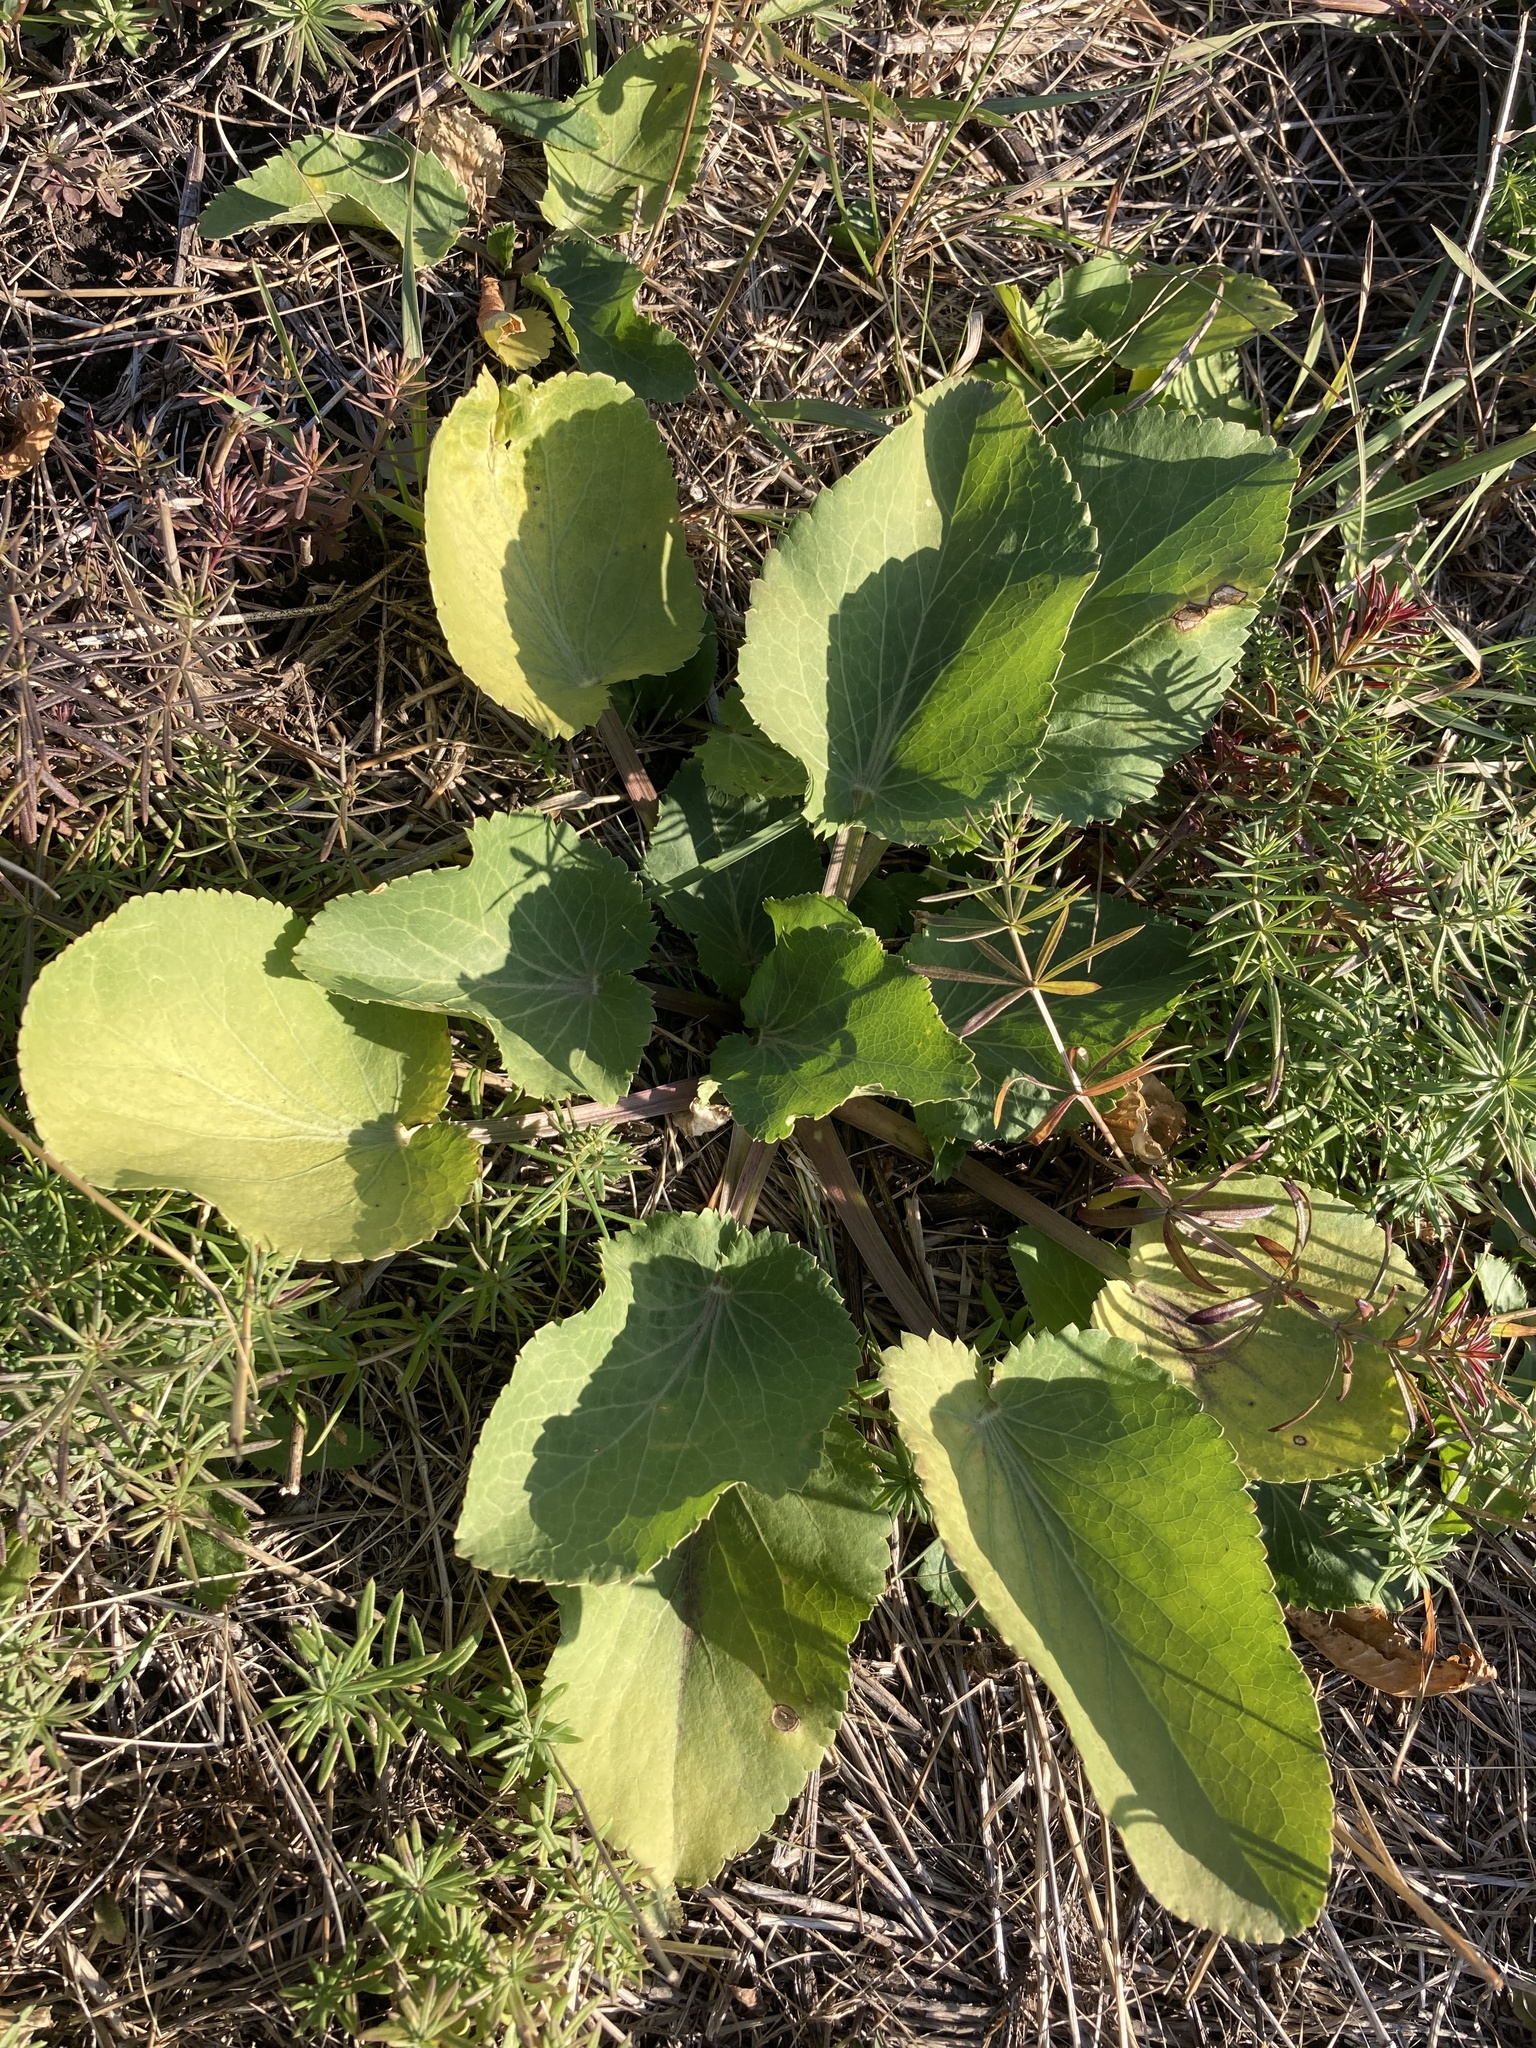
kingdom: Plantae
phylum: Tracheophyta
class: Magnoliopsida
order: Apiales
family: Apiaceae
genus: Eryngium
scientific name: Eryngium planum
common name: Blue eryngo
